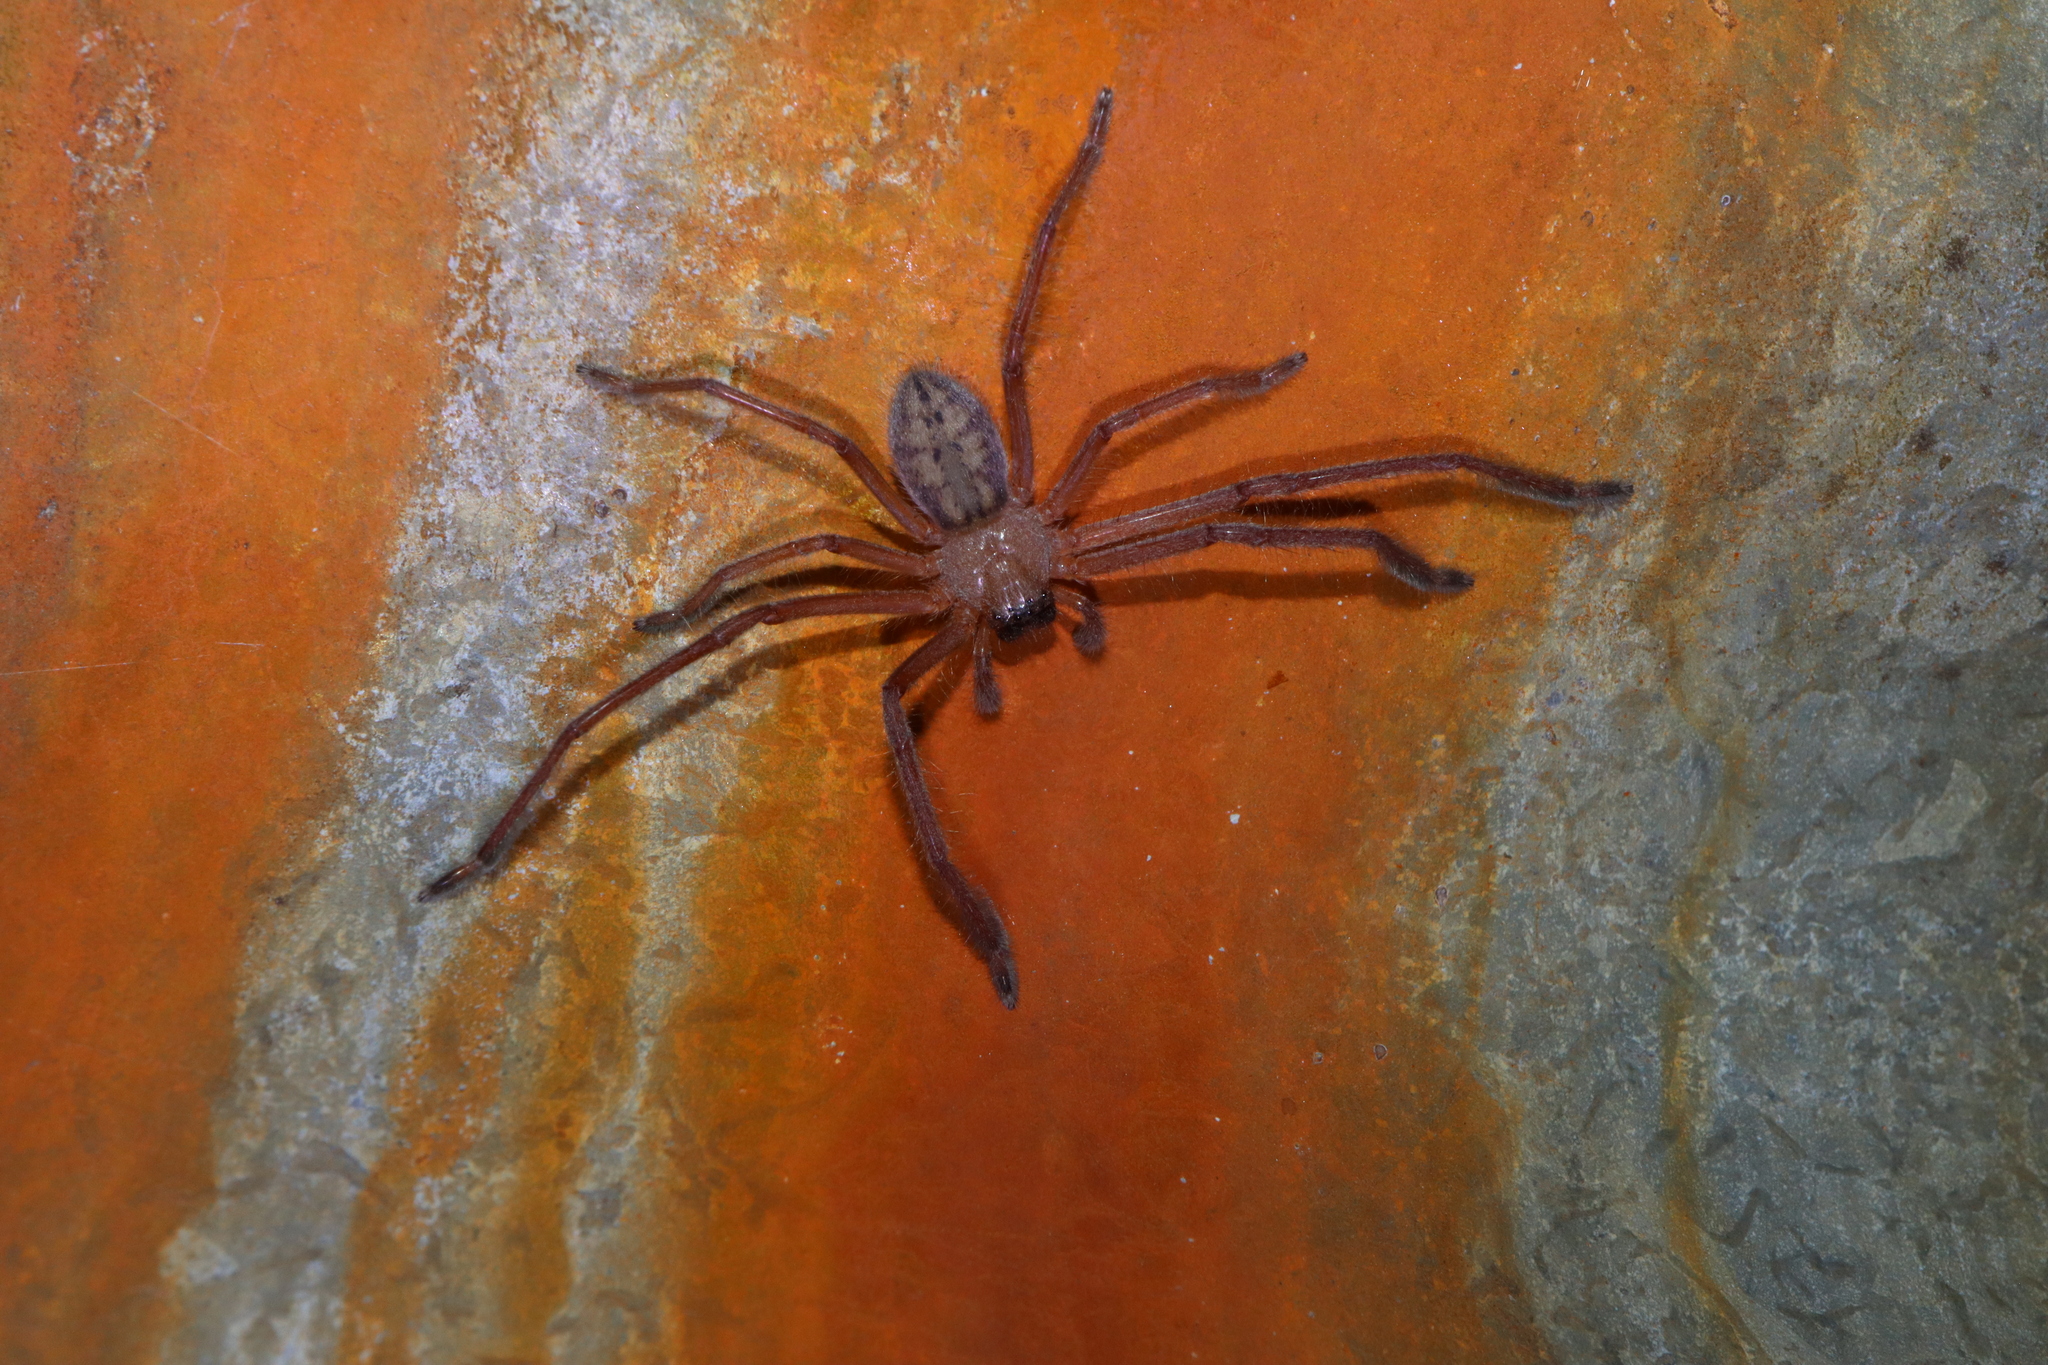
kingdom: Animalia
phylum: Arthropoda
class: Arachnida
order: Araneae
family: Sparassidae
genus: Delena
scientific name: Delena cancerides
